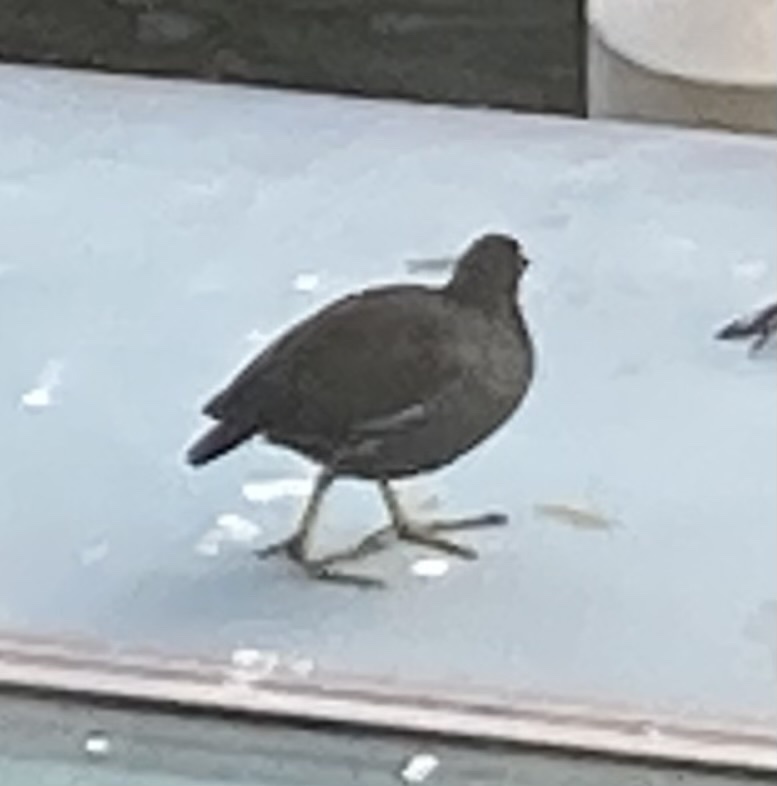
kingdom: Animalia
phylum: Chordata
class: Aves
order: Gruiformes
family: Rallidae
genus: Gallinula
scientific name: Gallinula chloropus
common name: Common moorhen
